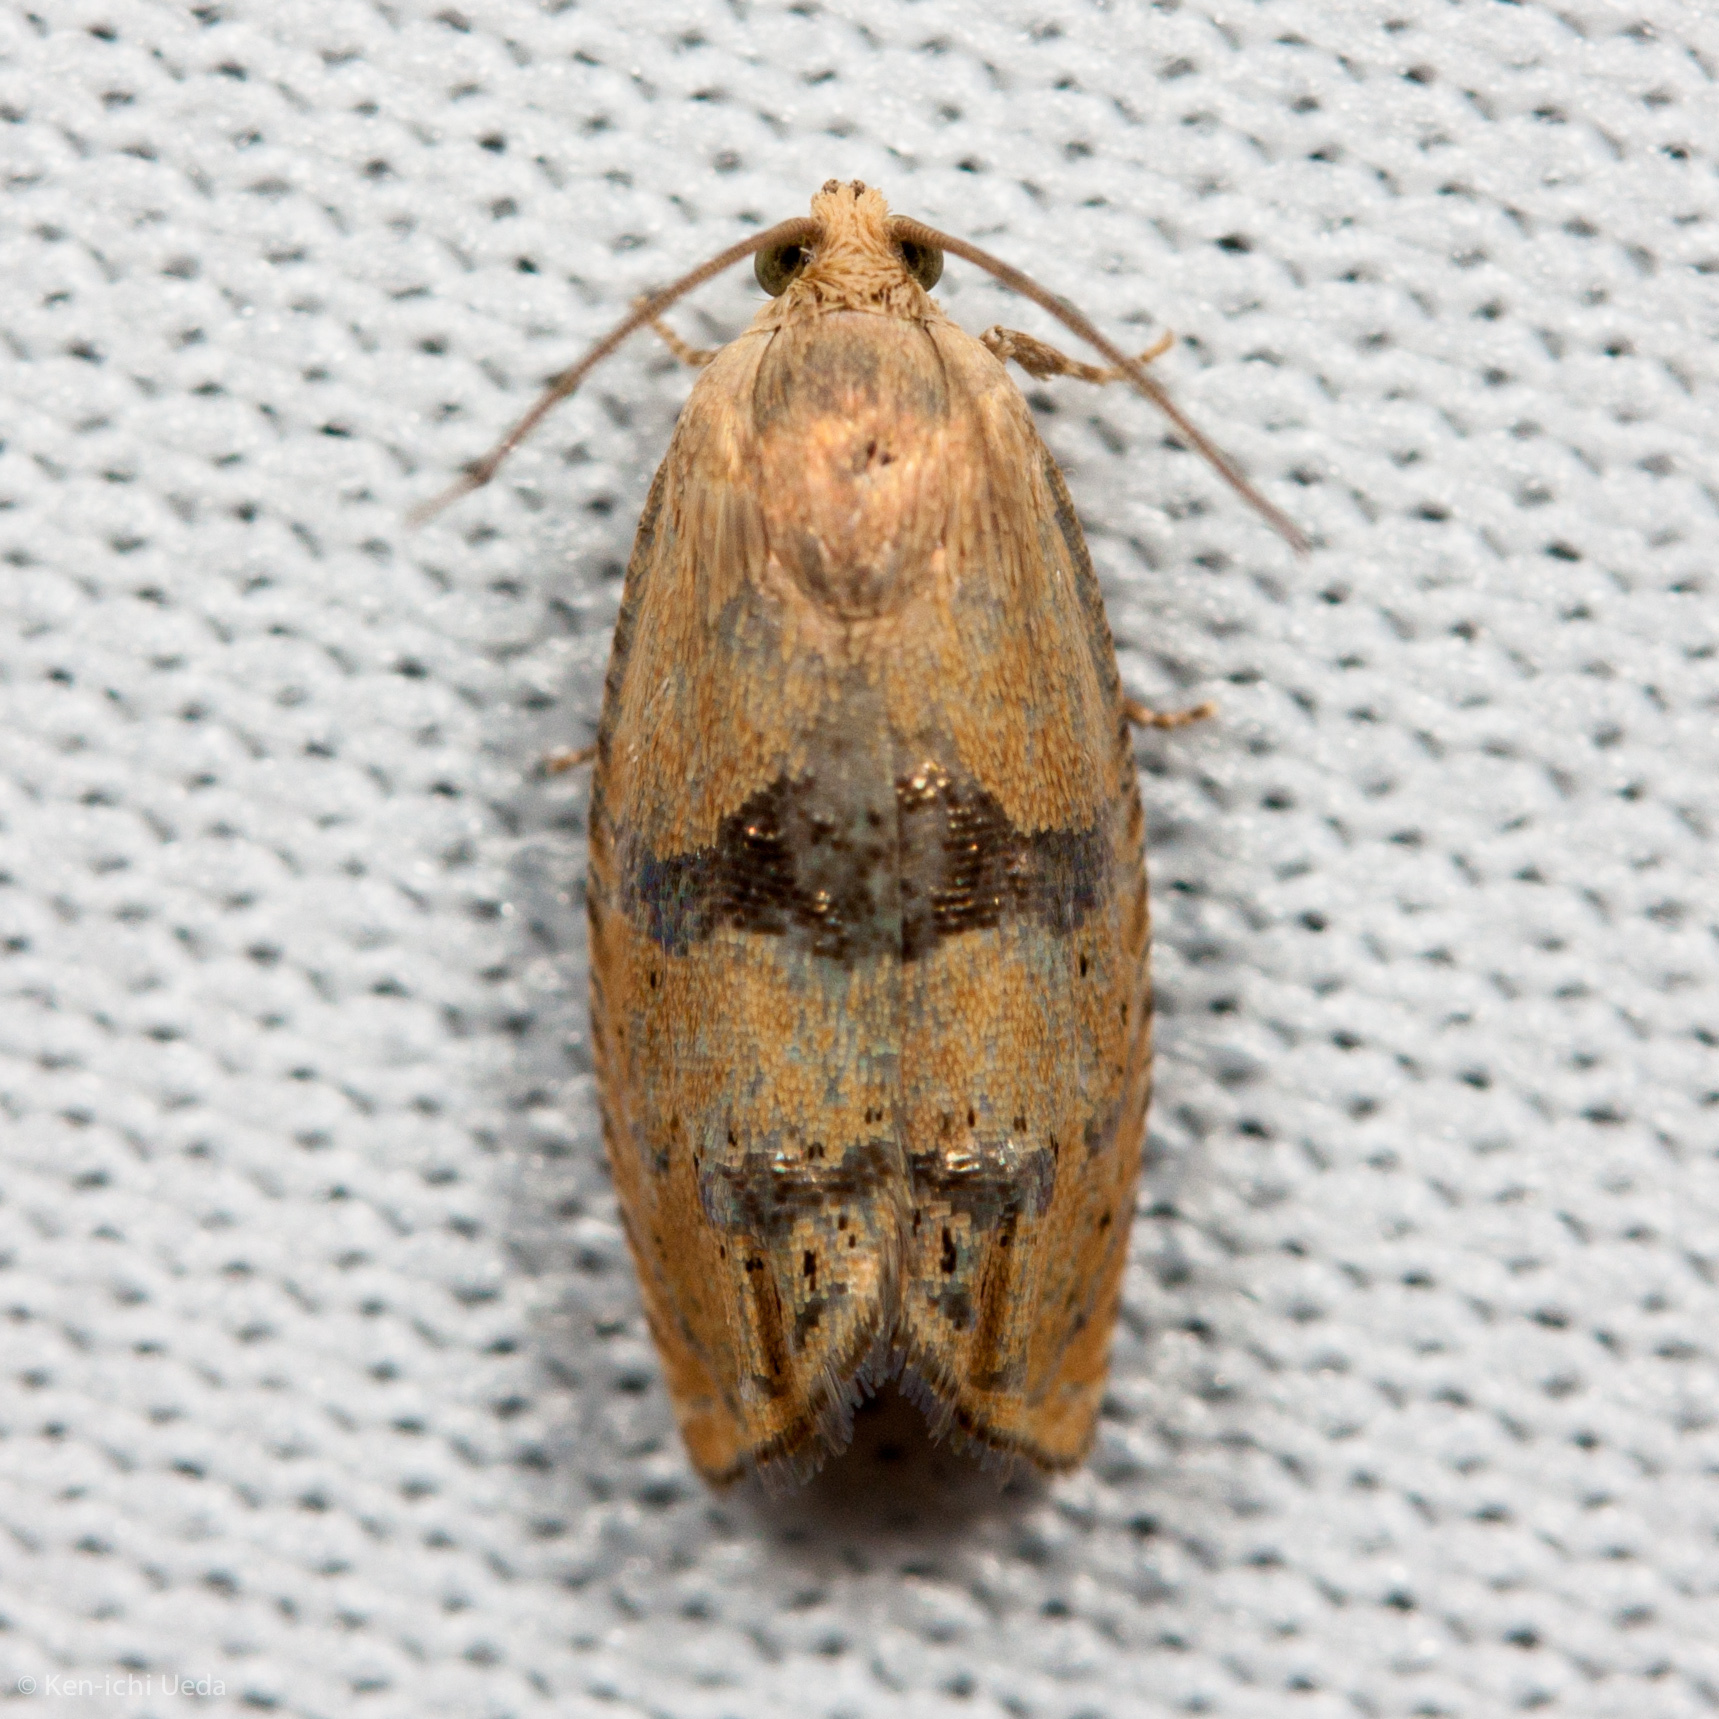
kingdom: Animalia
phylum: Arthropoda
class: Insecta
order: Lepidoptera
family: Tortricidae
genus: Cydia
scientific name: Cydia latiferreana
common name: Filbertworm moth
